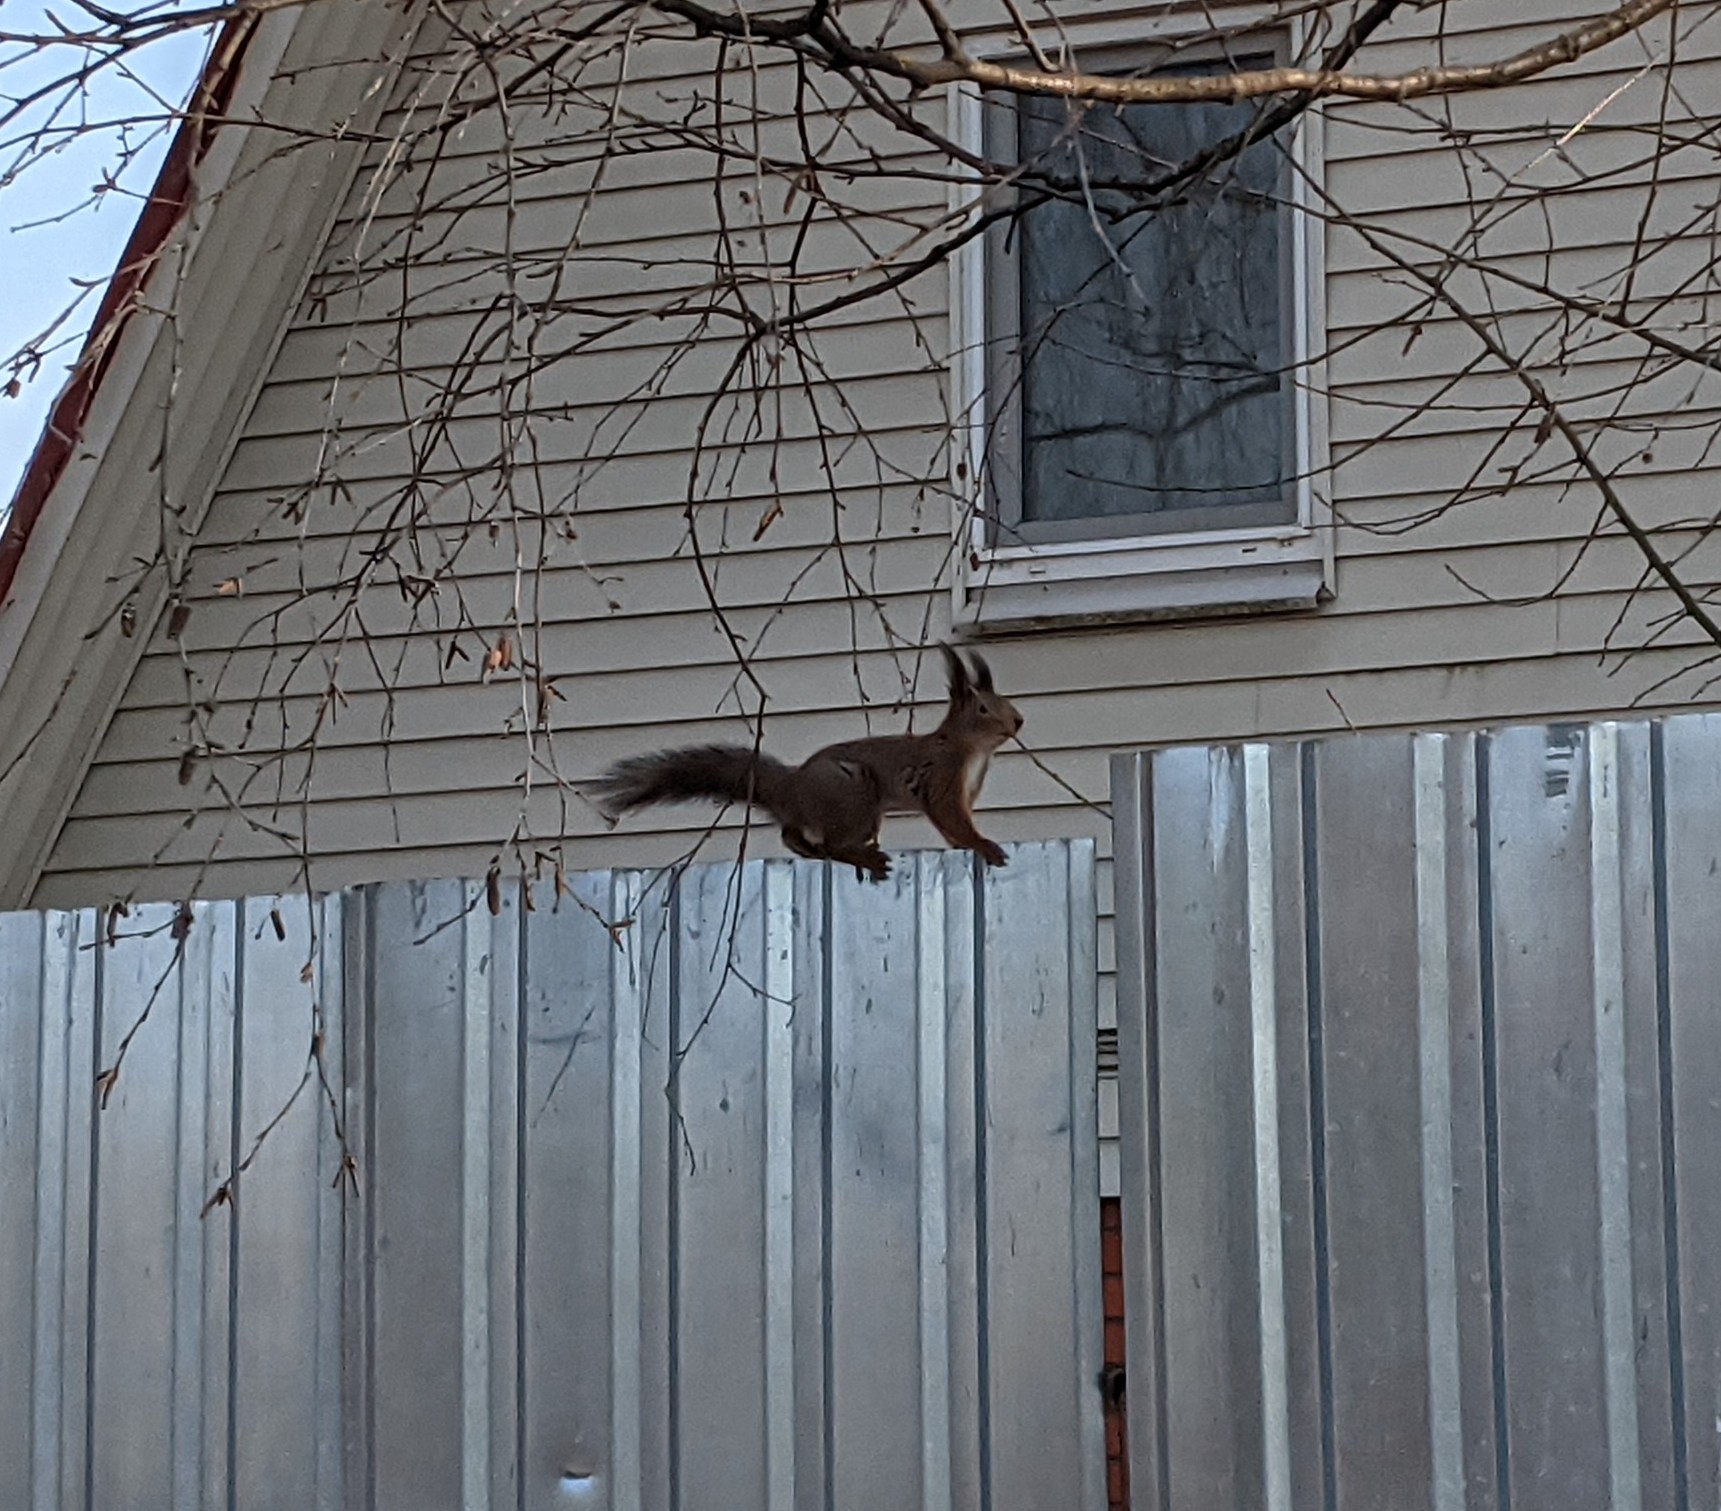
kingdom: Animalia
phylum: Chordata
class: Mammalia
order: Rodentia
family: Sciuridae
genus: Sciurus
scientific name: Sciurus vulgaris
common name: Eurasian red squirrel
